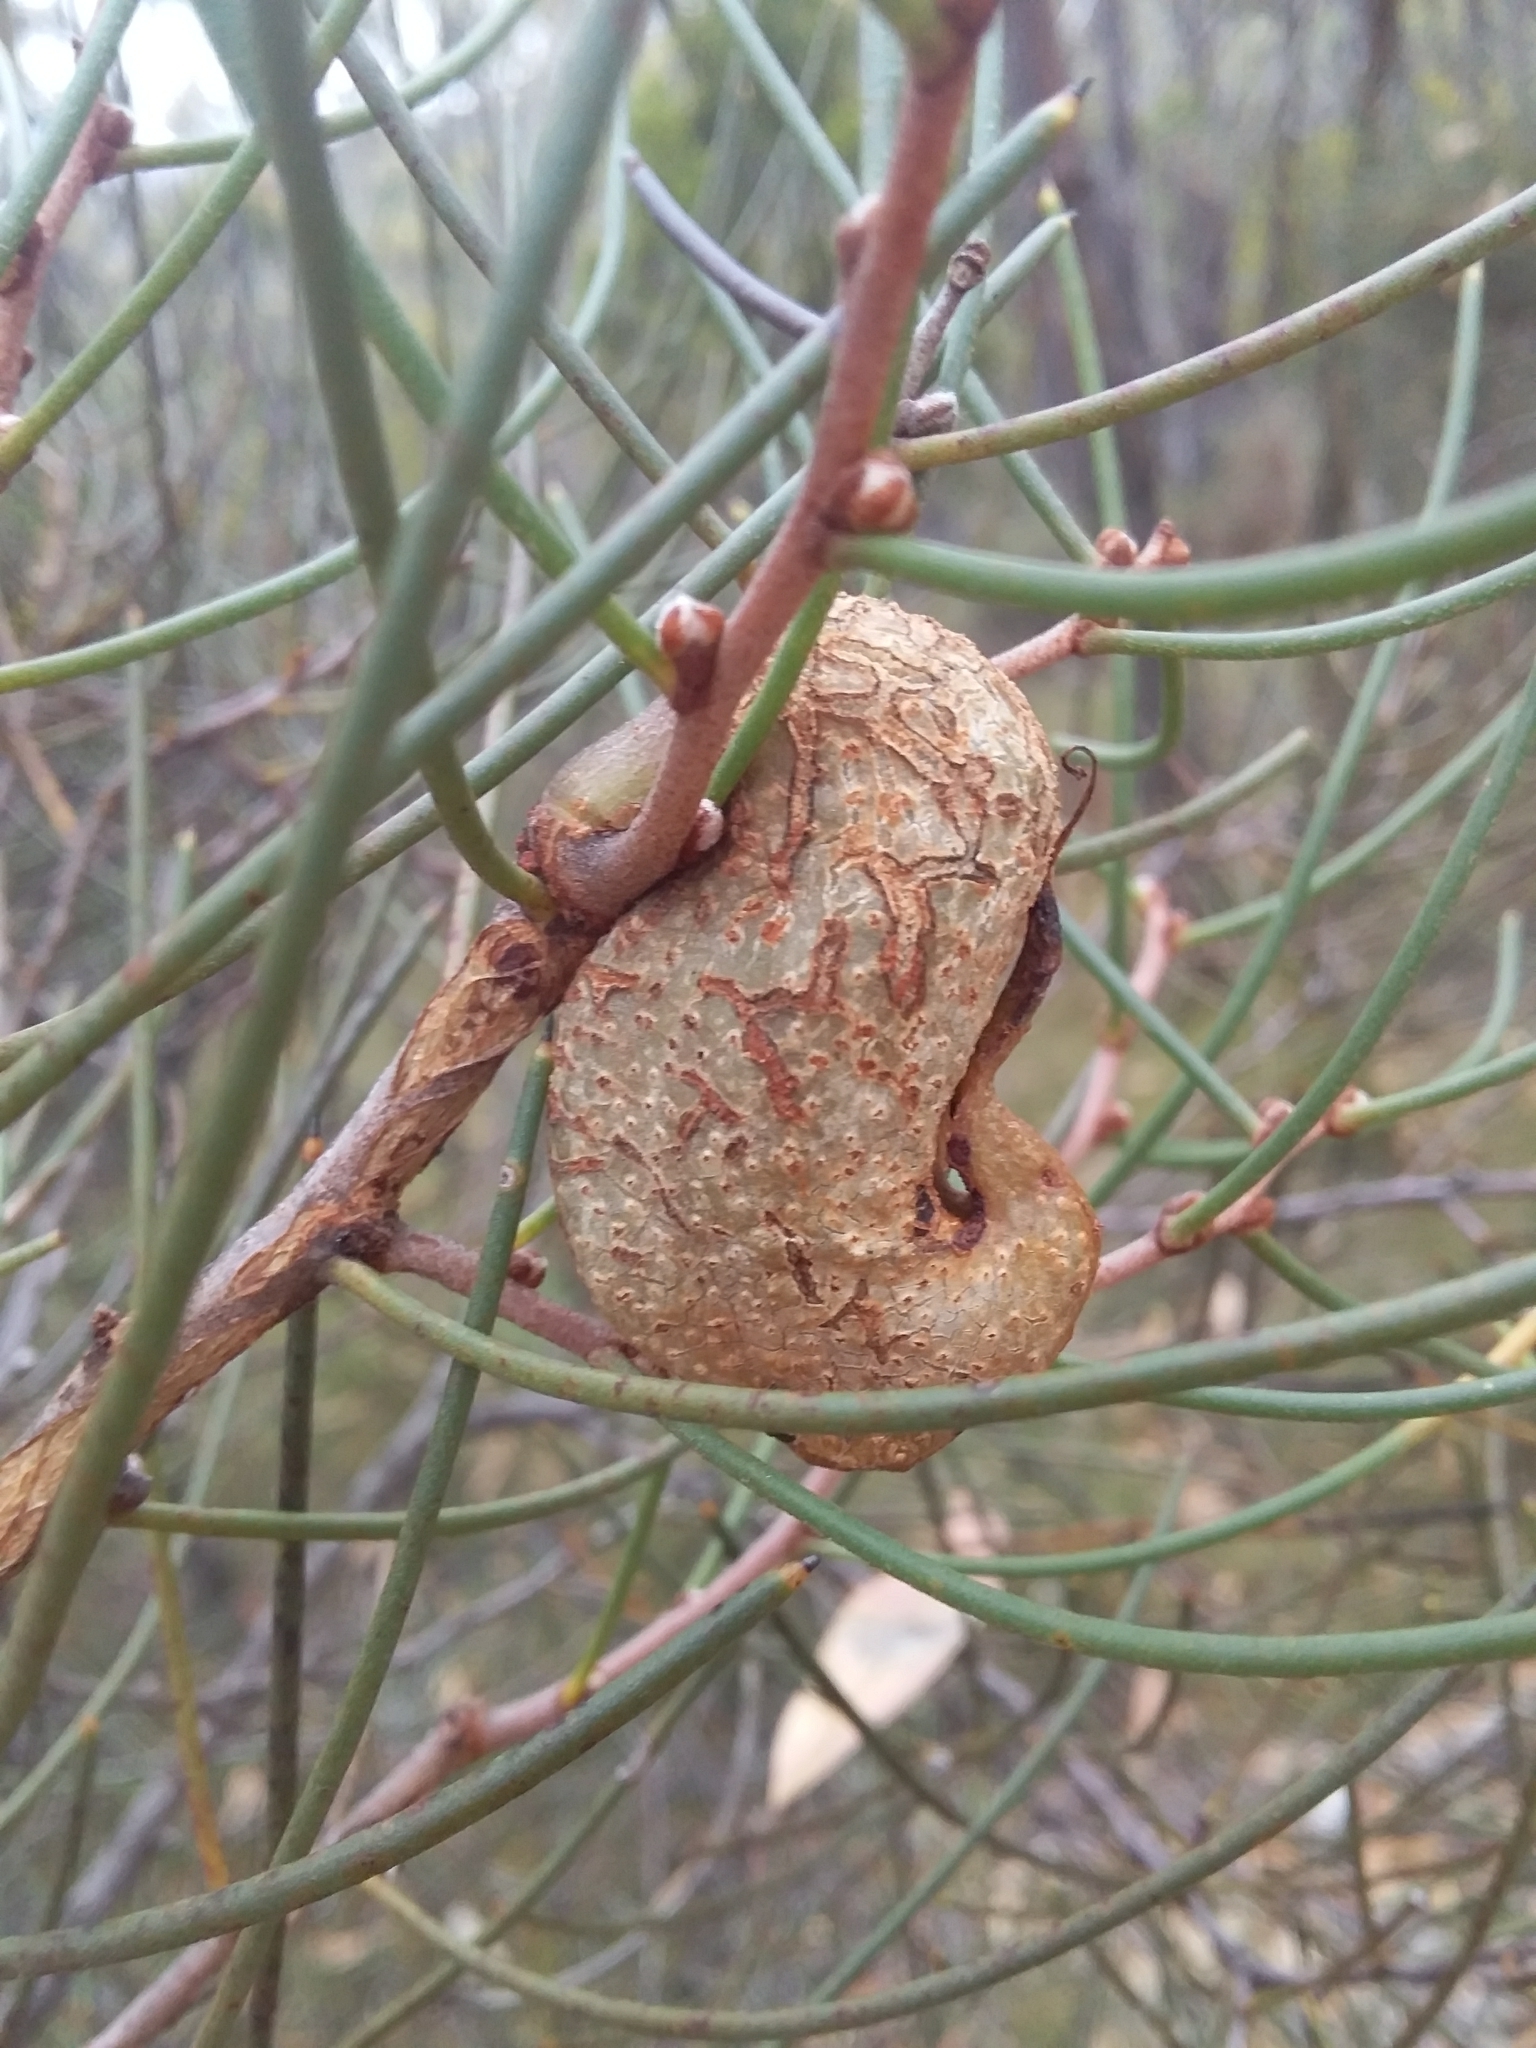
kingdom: Plantae
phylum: Tracheophyta
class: Magnoliopsida
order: Proteales
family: Proteaceae
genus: Hakea
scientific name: Hakea rostrata
